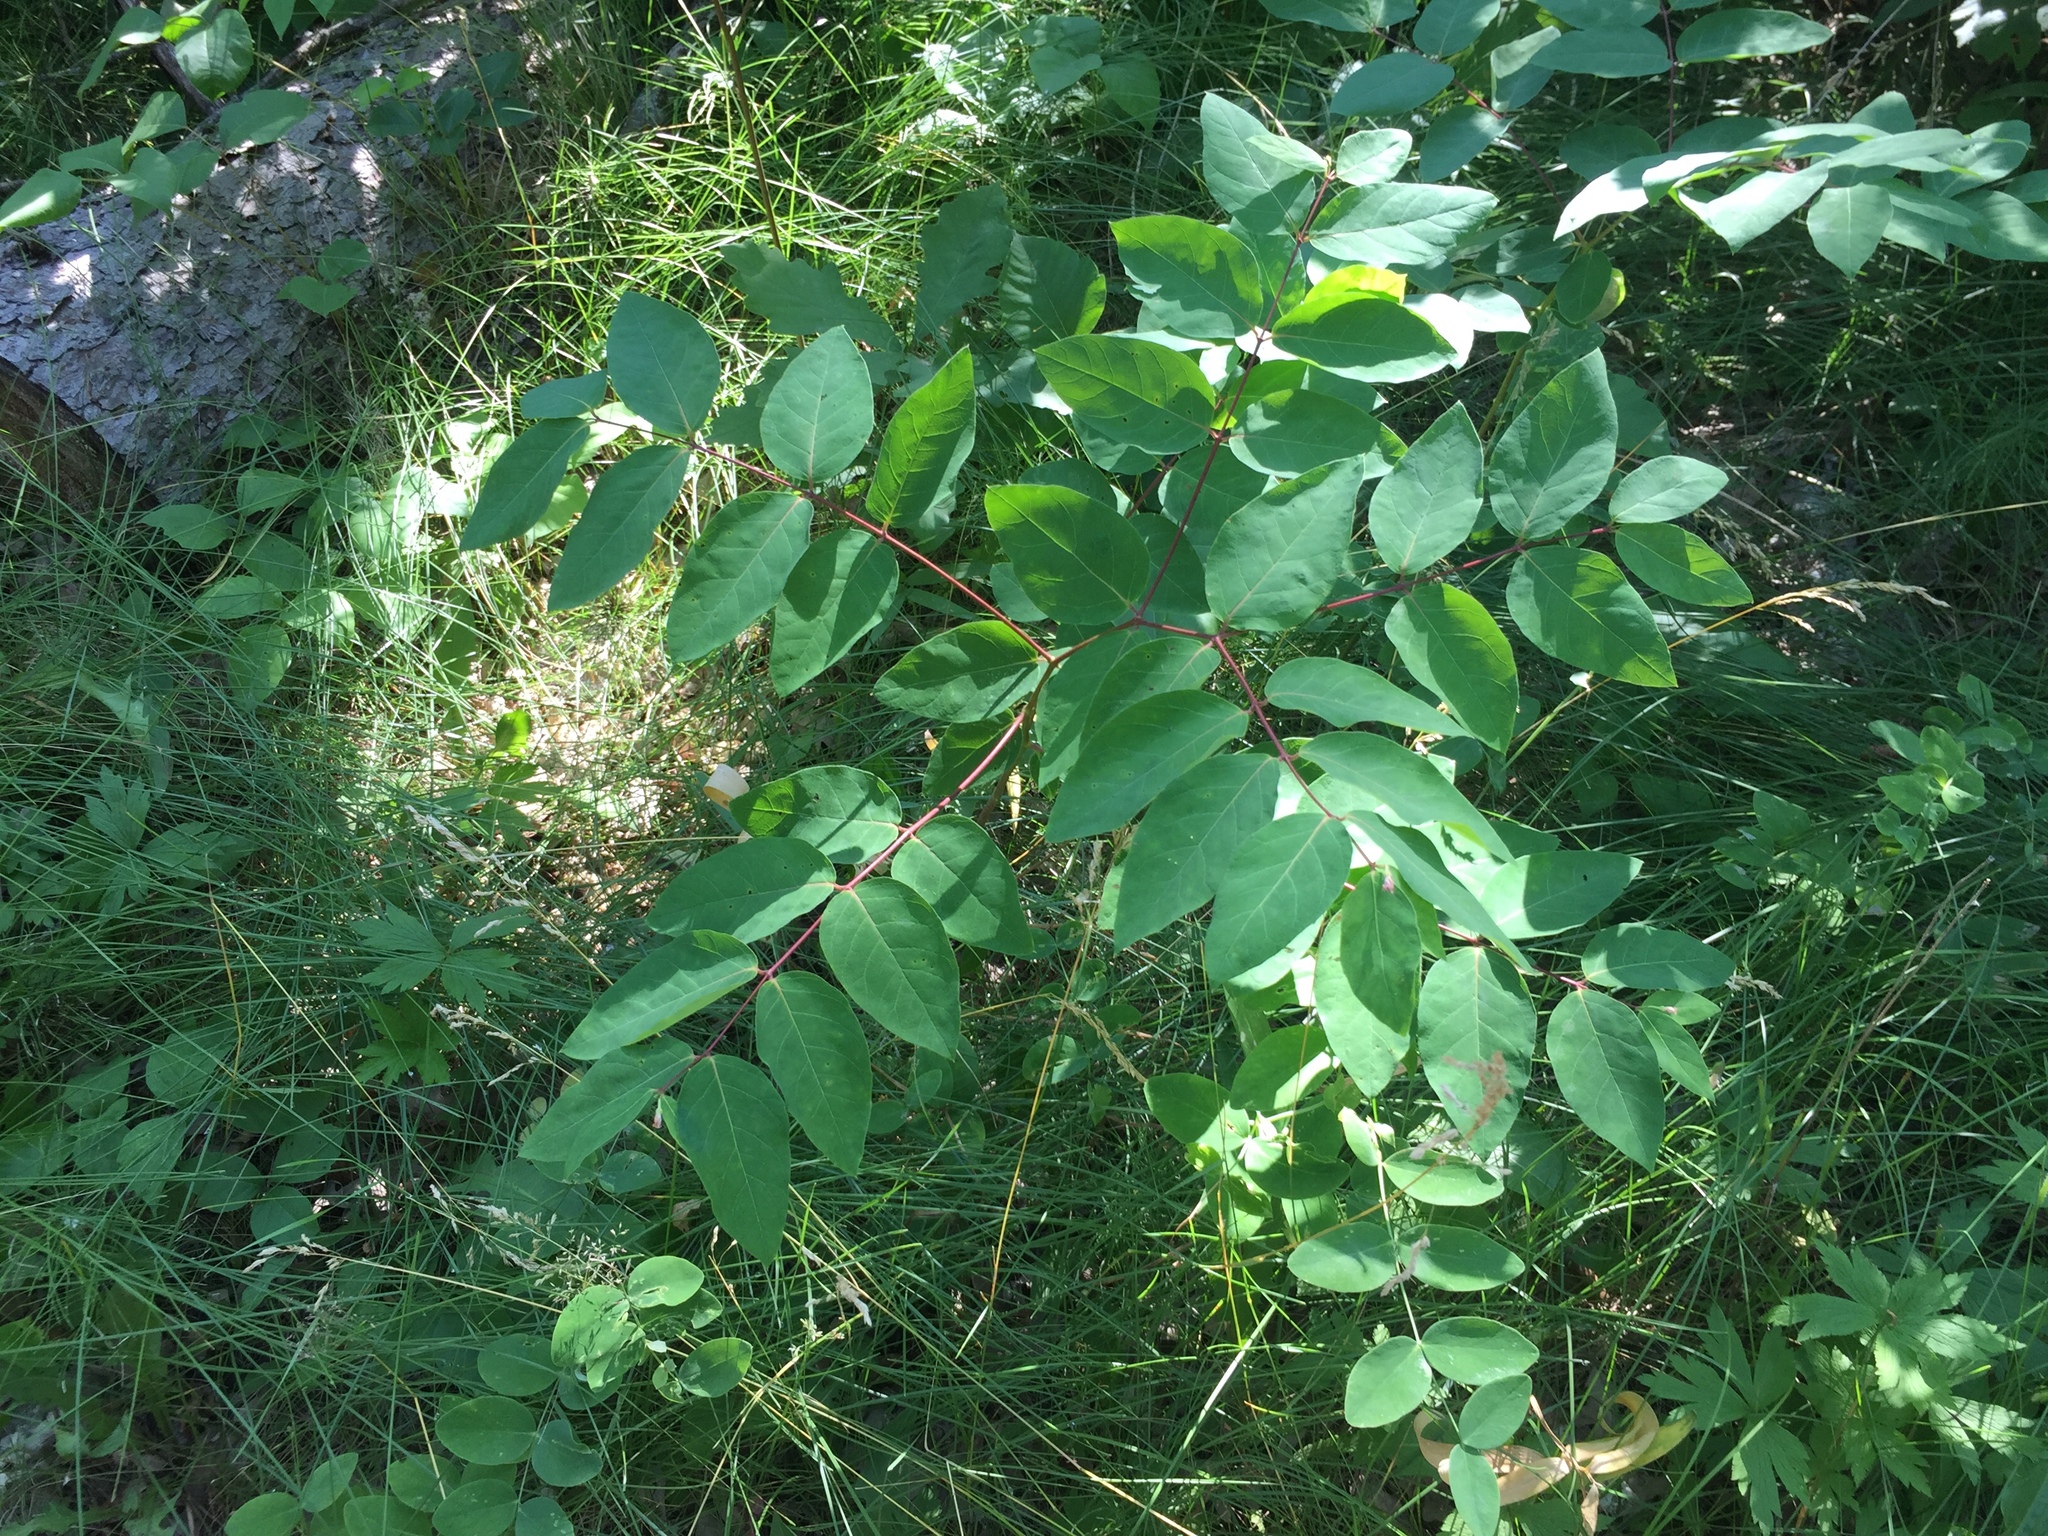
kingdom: Plantae
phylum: Tracheophyta
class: Magnoliopsida
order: Gentianales
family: Apocynaceae
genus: Apocynum
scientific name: Apocynum androsaemifolium
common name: Spreading dogbane
